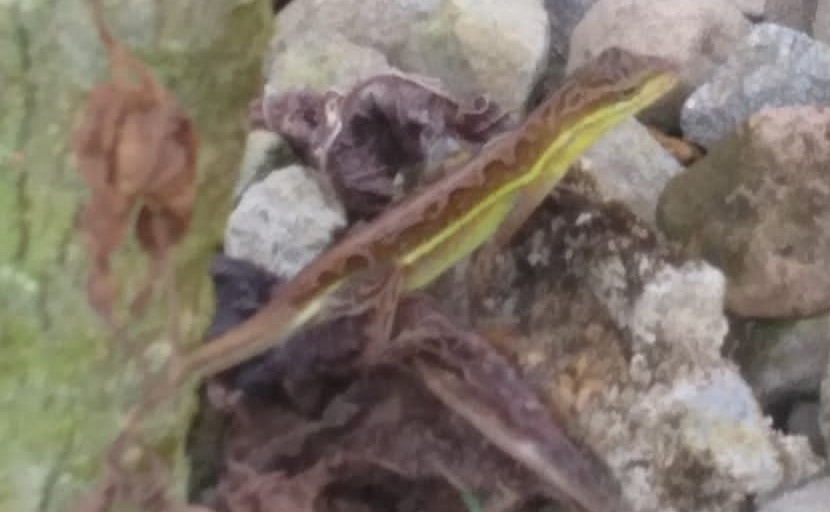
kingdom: Animalia
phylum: Chordata
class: Squamata
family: Dactyloidae
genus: Anolis
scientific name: Anolis auratus
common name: Grass anole
